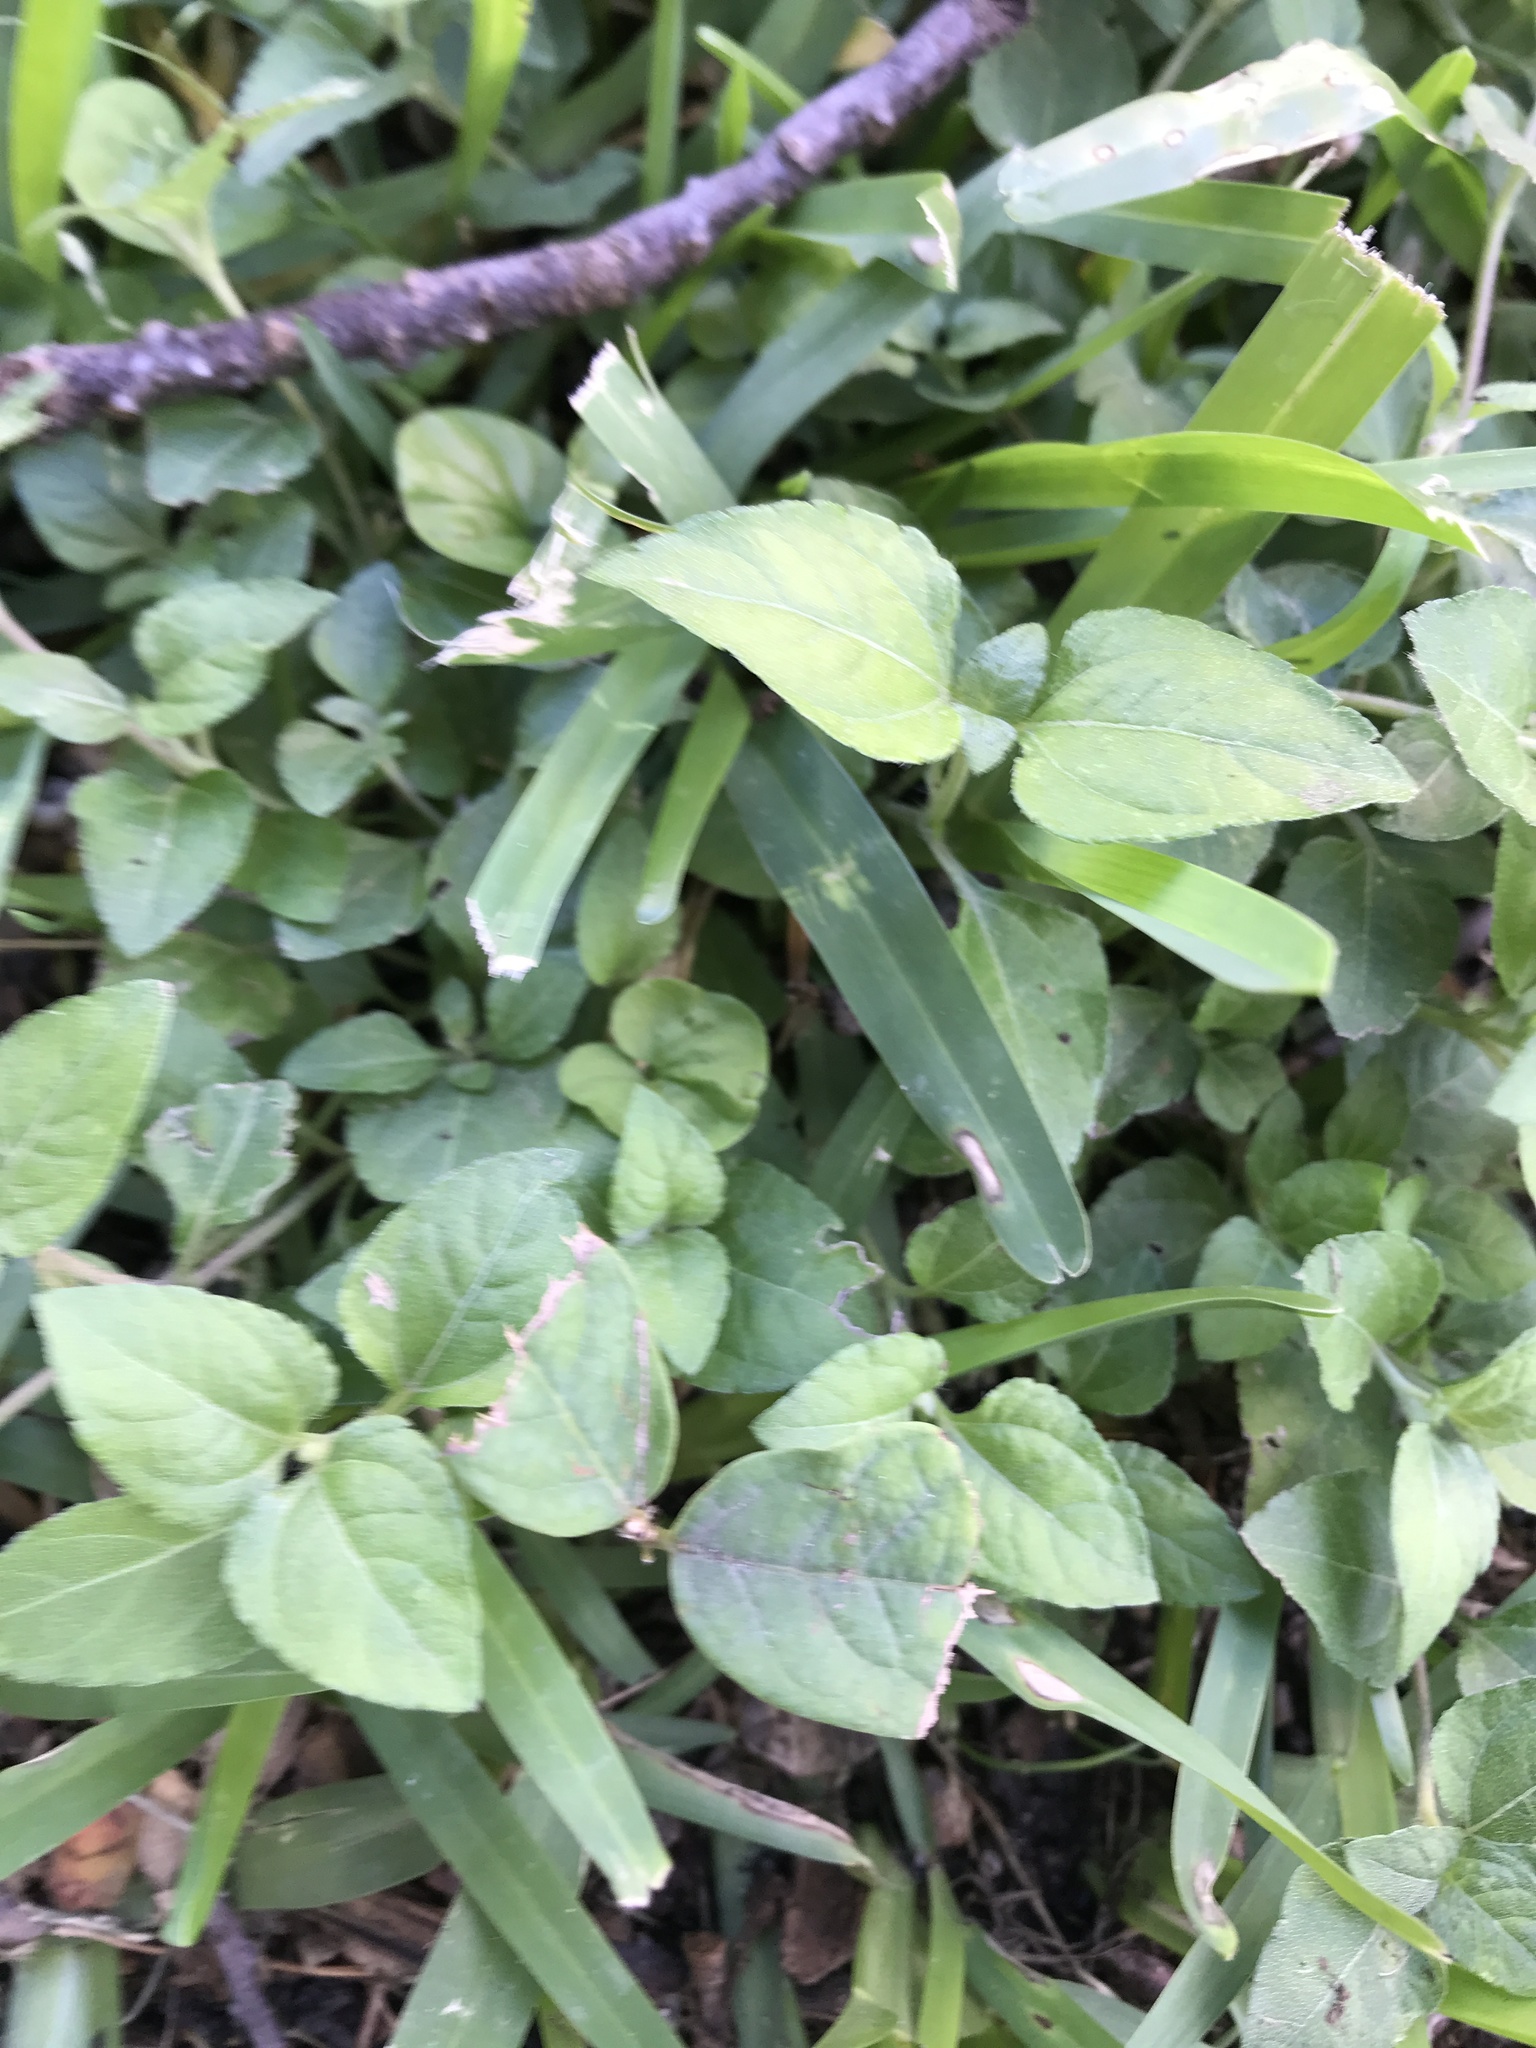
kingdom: Plantae
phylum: Tracheophyta
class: Magnoliopsida
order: Asterales
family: Asteraceae
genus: Calyptocarpus
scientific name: Calyptocarpus vialis
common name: Straggler daisy
